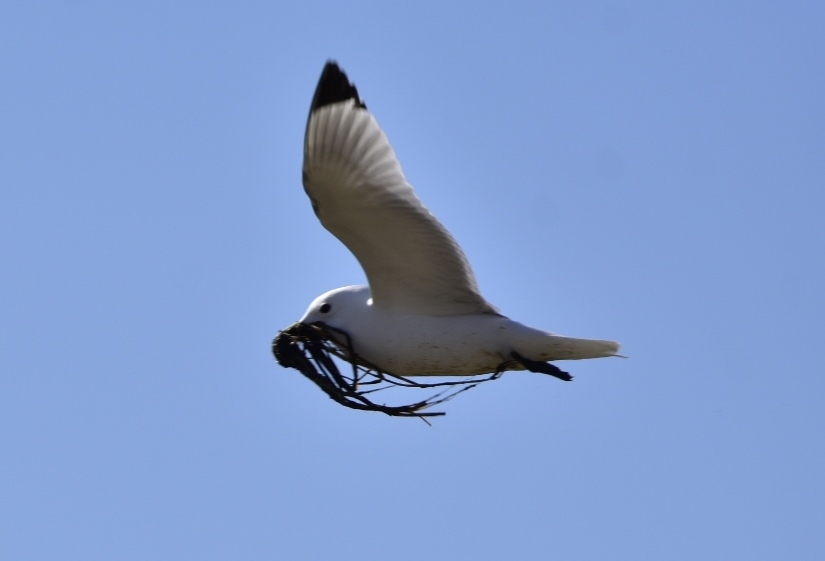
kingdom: Animalia
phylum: Chordata
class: Aves
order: Charadriiformes
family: Laridae
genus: Rissa
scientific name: Rissa tridactyla
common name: Black-legged kittiwake
